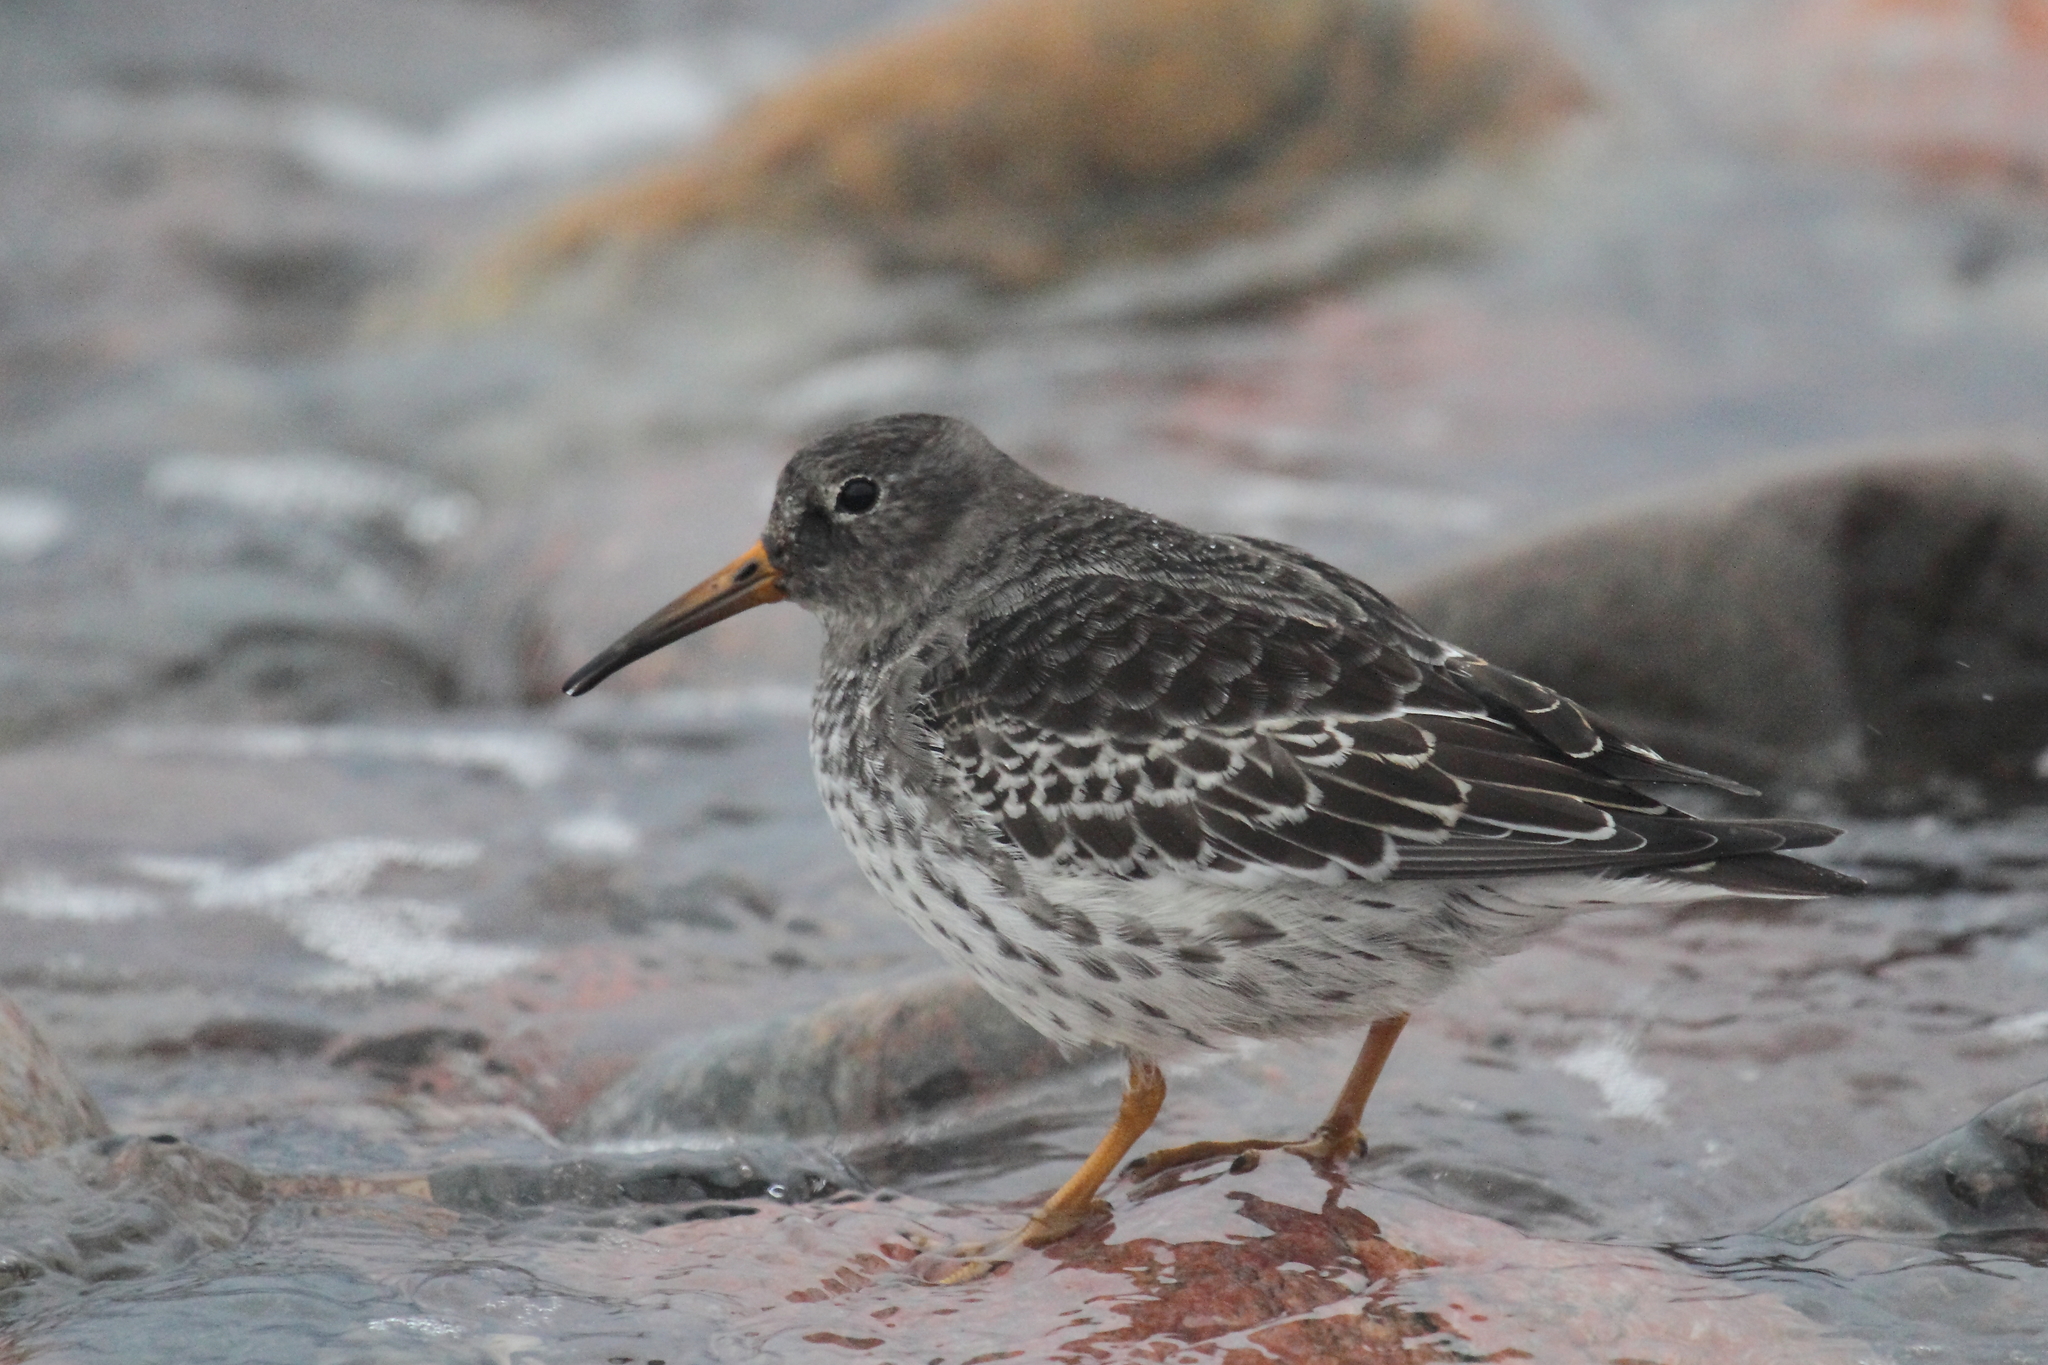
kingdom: Animalia
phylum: Chordata
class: Aves
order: Charadriiformes
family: Scolopacidae
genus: Calidris
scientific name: Calidris maritima
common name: Purple sandpiper
